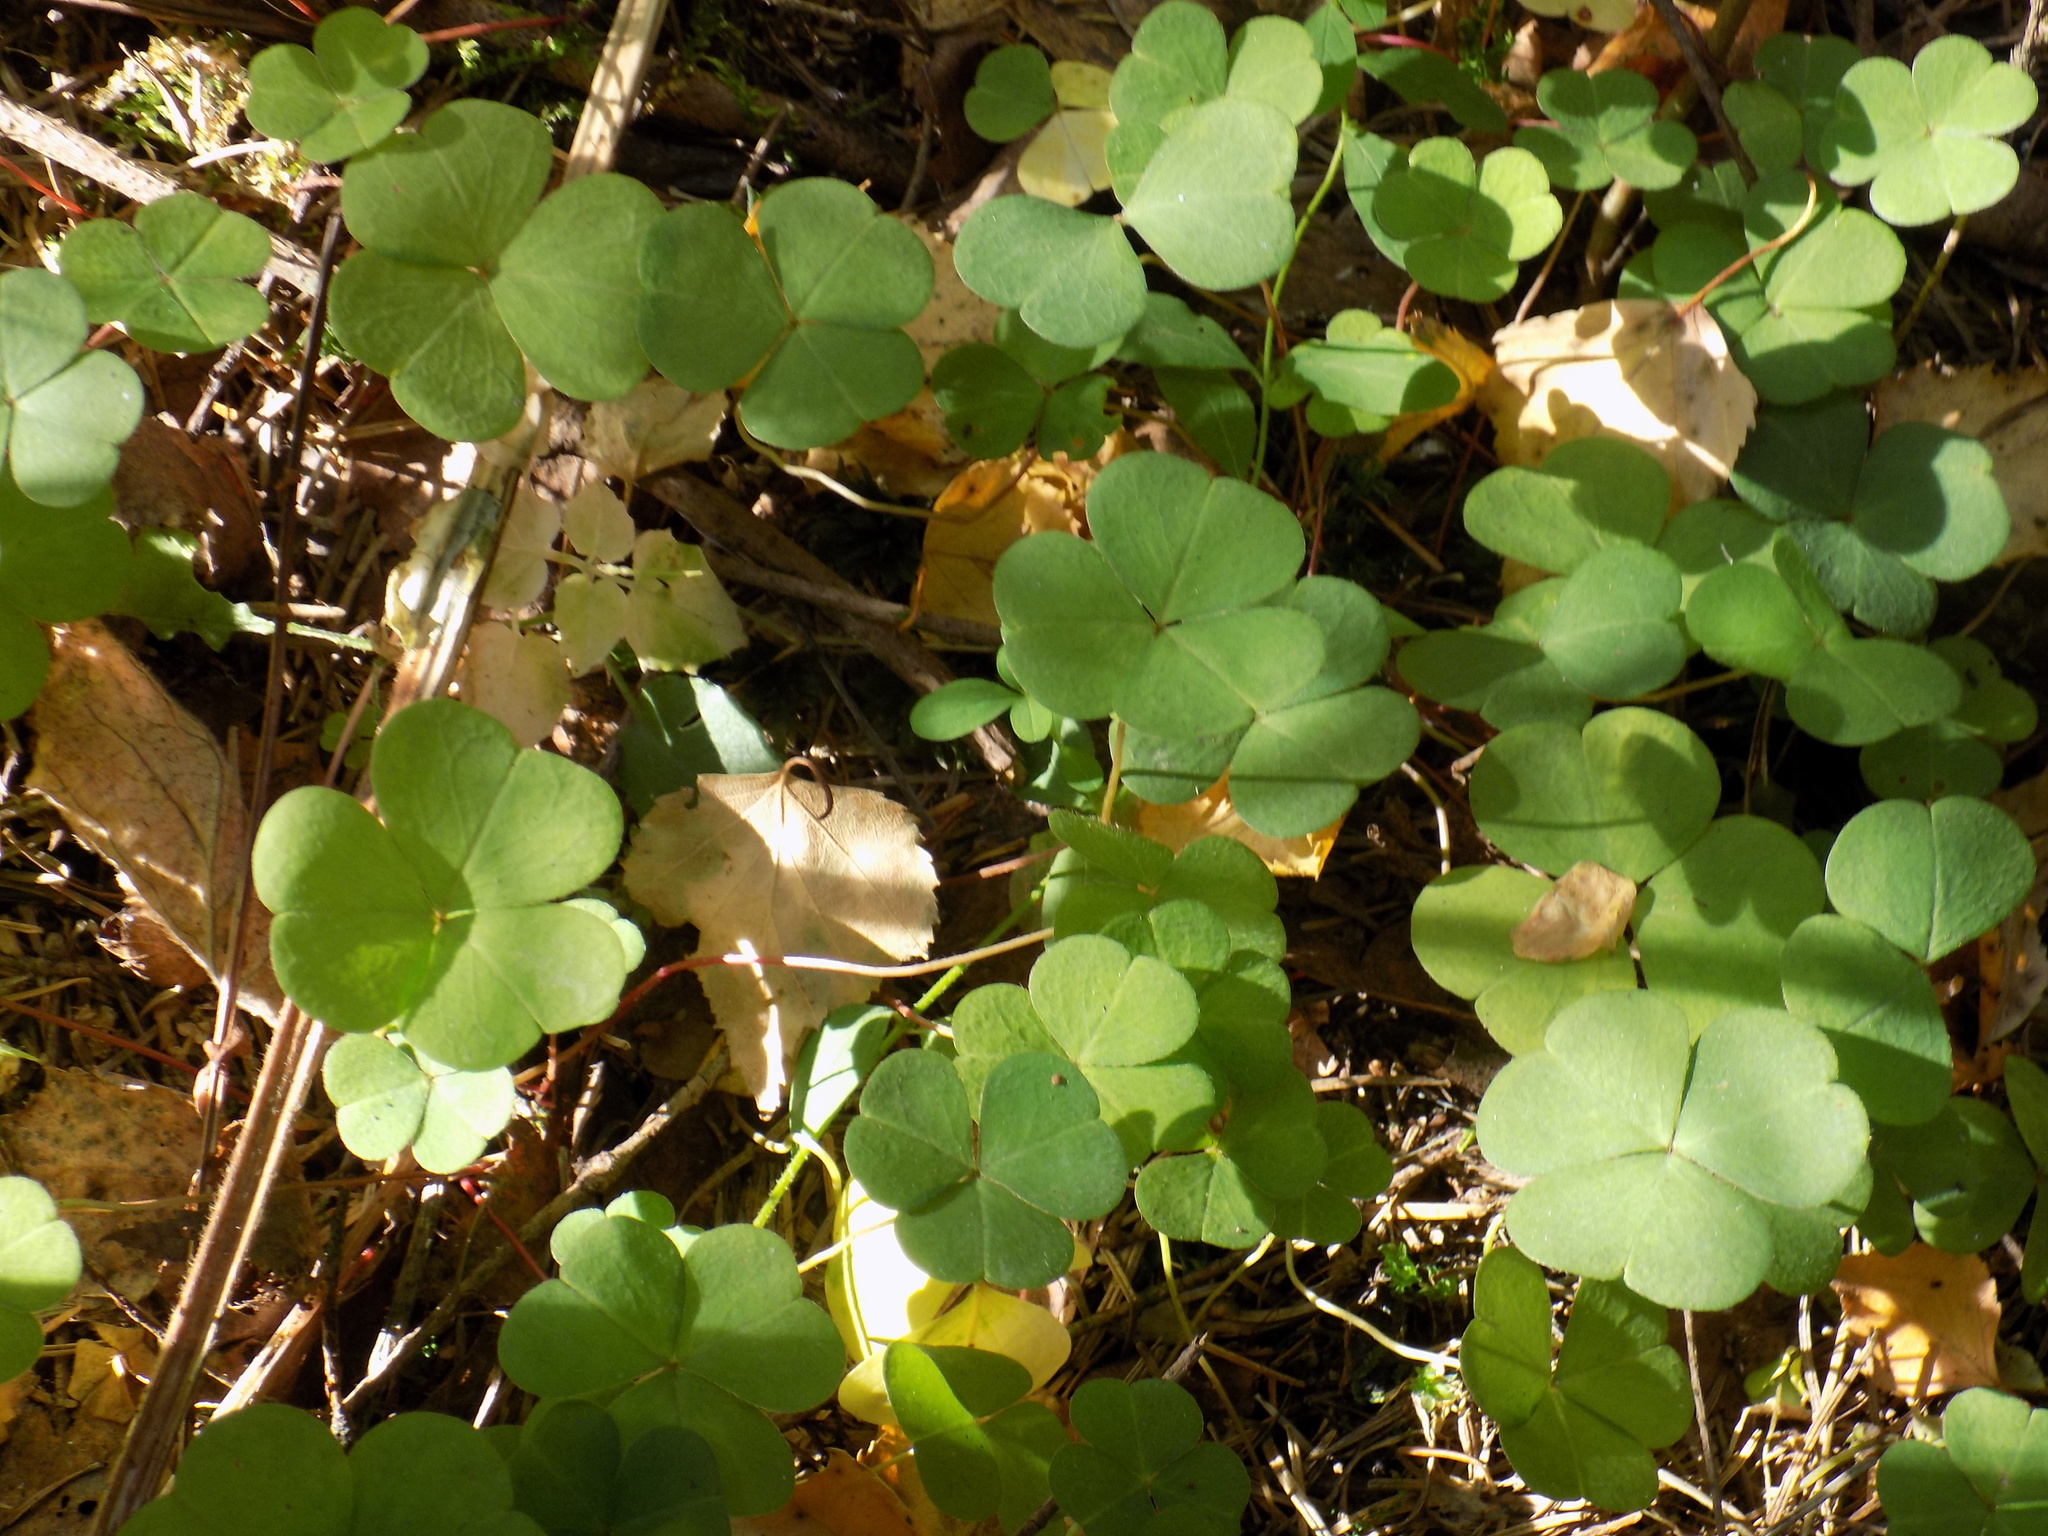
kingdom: Plantae
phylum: Tracheophyta
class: Magnoliopsida
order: Oxalidales
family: Oxalidaceae
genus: Oxalis
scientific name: Oxalis acetosella
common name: Wood-sorrel
